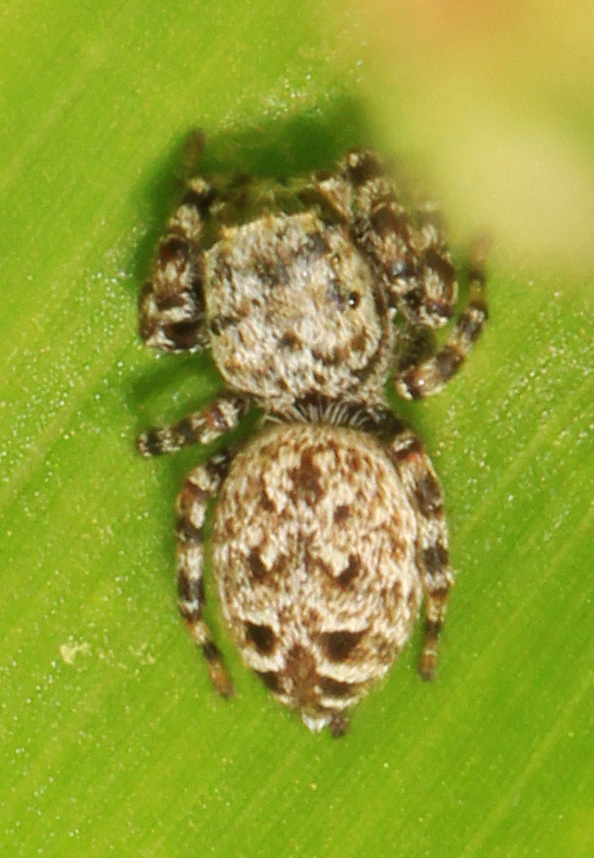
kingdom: Animalia
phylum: Arthropoda
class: Arachnida
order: Araneae
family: Salticidae
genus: Pelegrina
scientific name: Pelegrina galathea
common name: Jumping spiders
